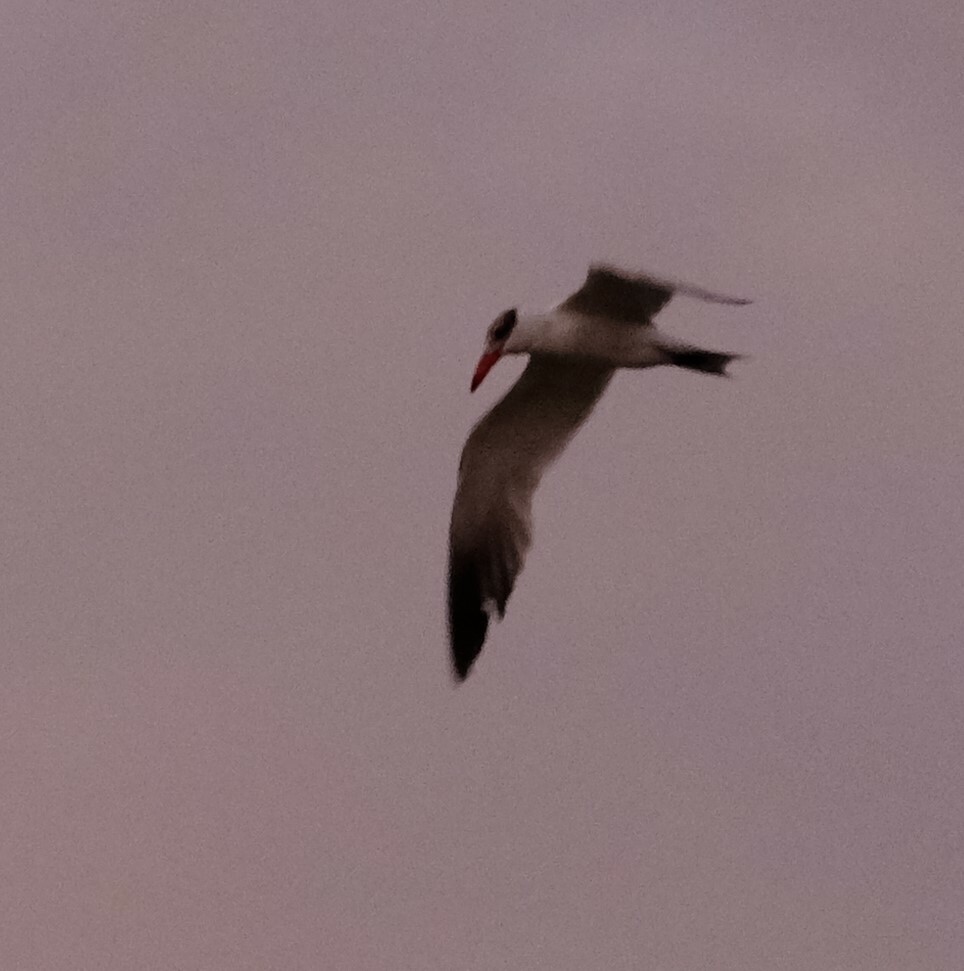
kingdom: Animalia
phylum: Chordata
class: Aves
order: Charadriiformes
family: Laridae
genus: Hydroprogne
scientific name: Hydroprogne caspia
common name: Caspian tern
